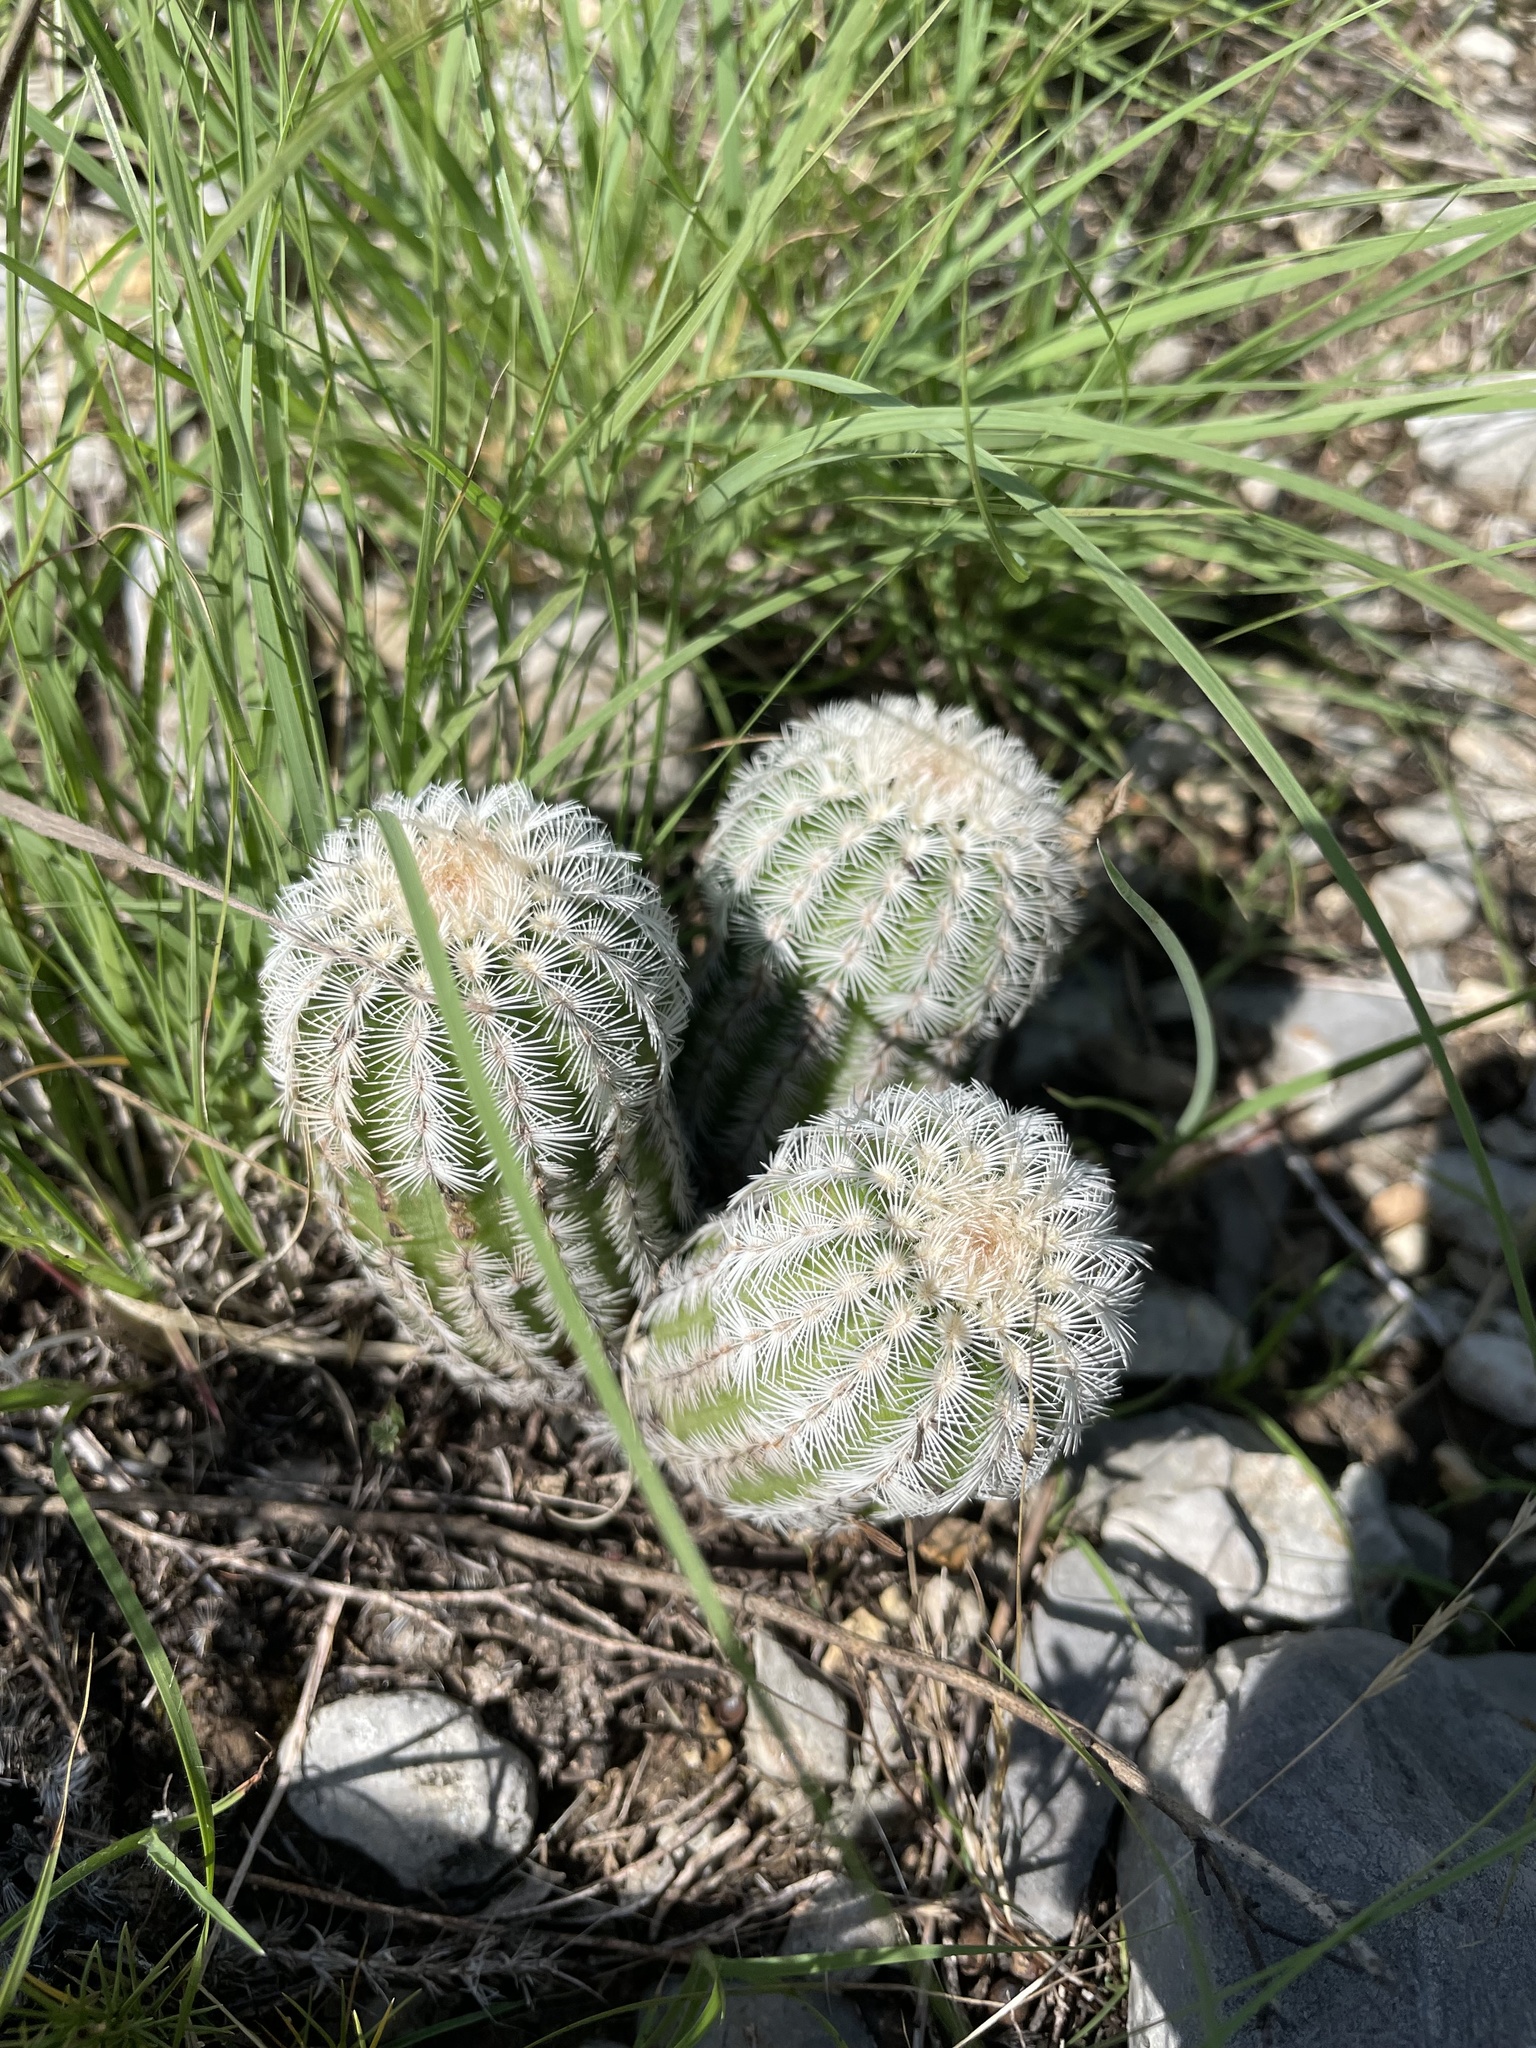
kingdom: Plantae
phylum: Tracheophyta
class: Magnoliopsida
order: Caryophyllales
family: Cactaceae
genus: Echinocereus
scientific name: Echinocereus reichenbachii
